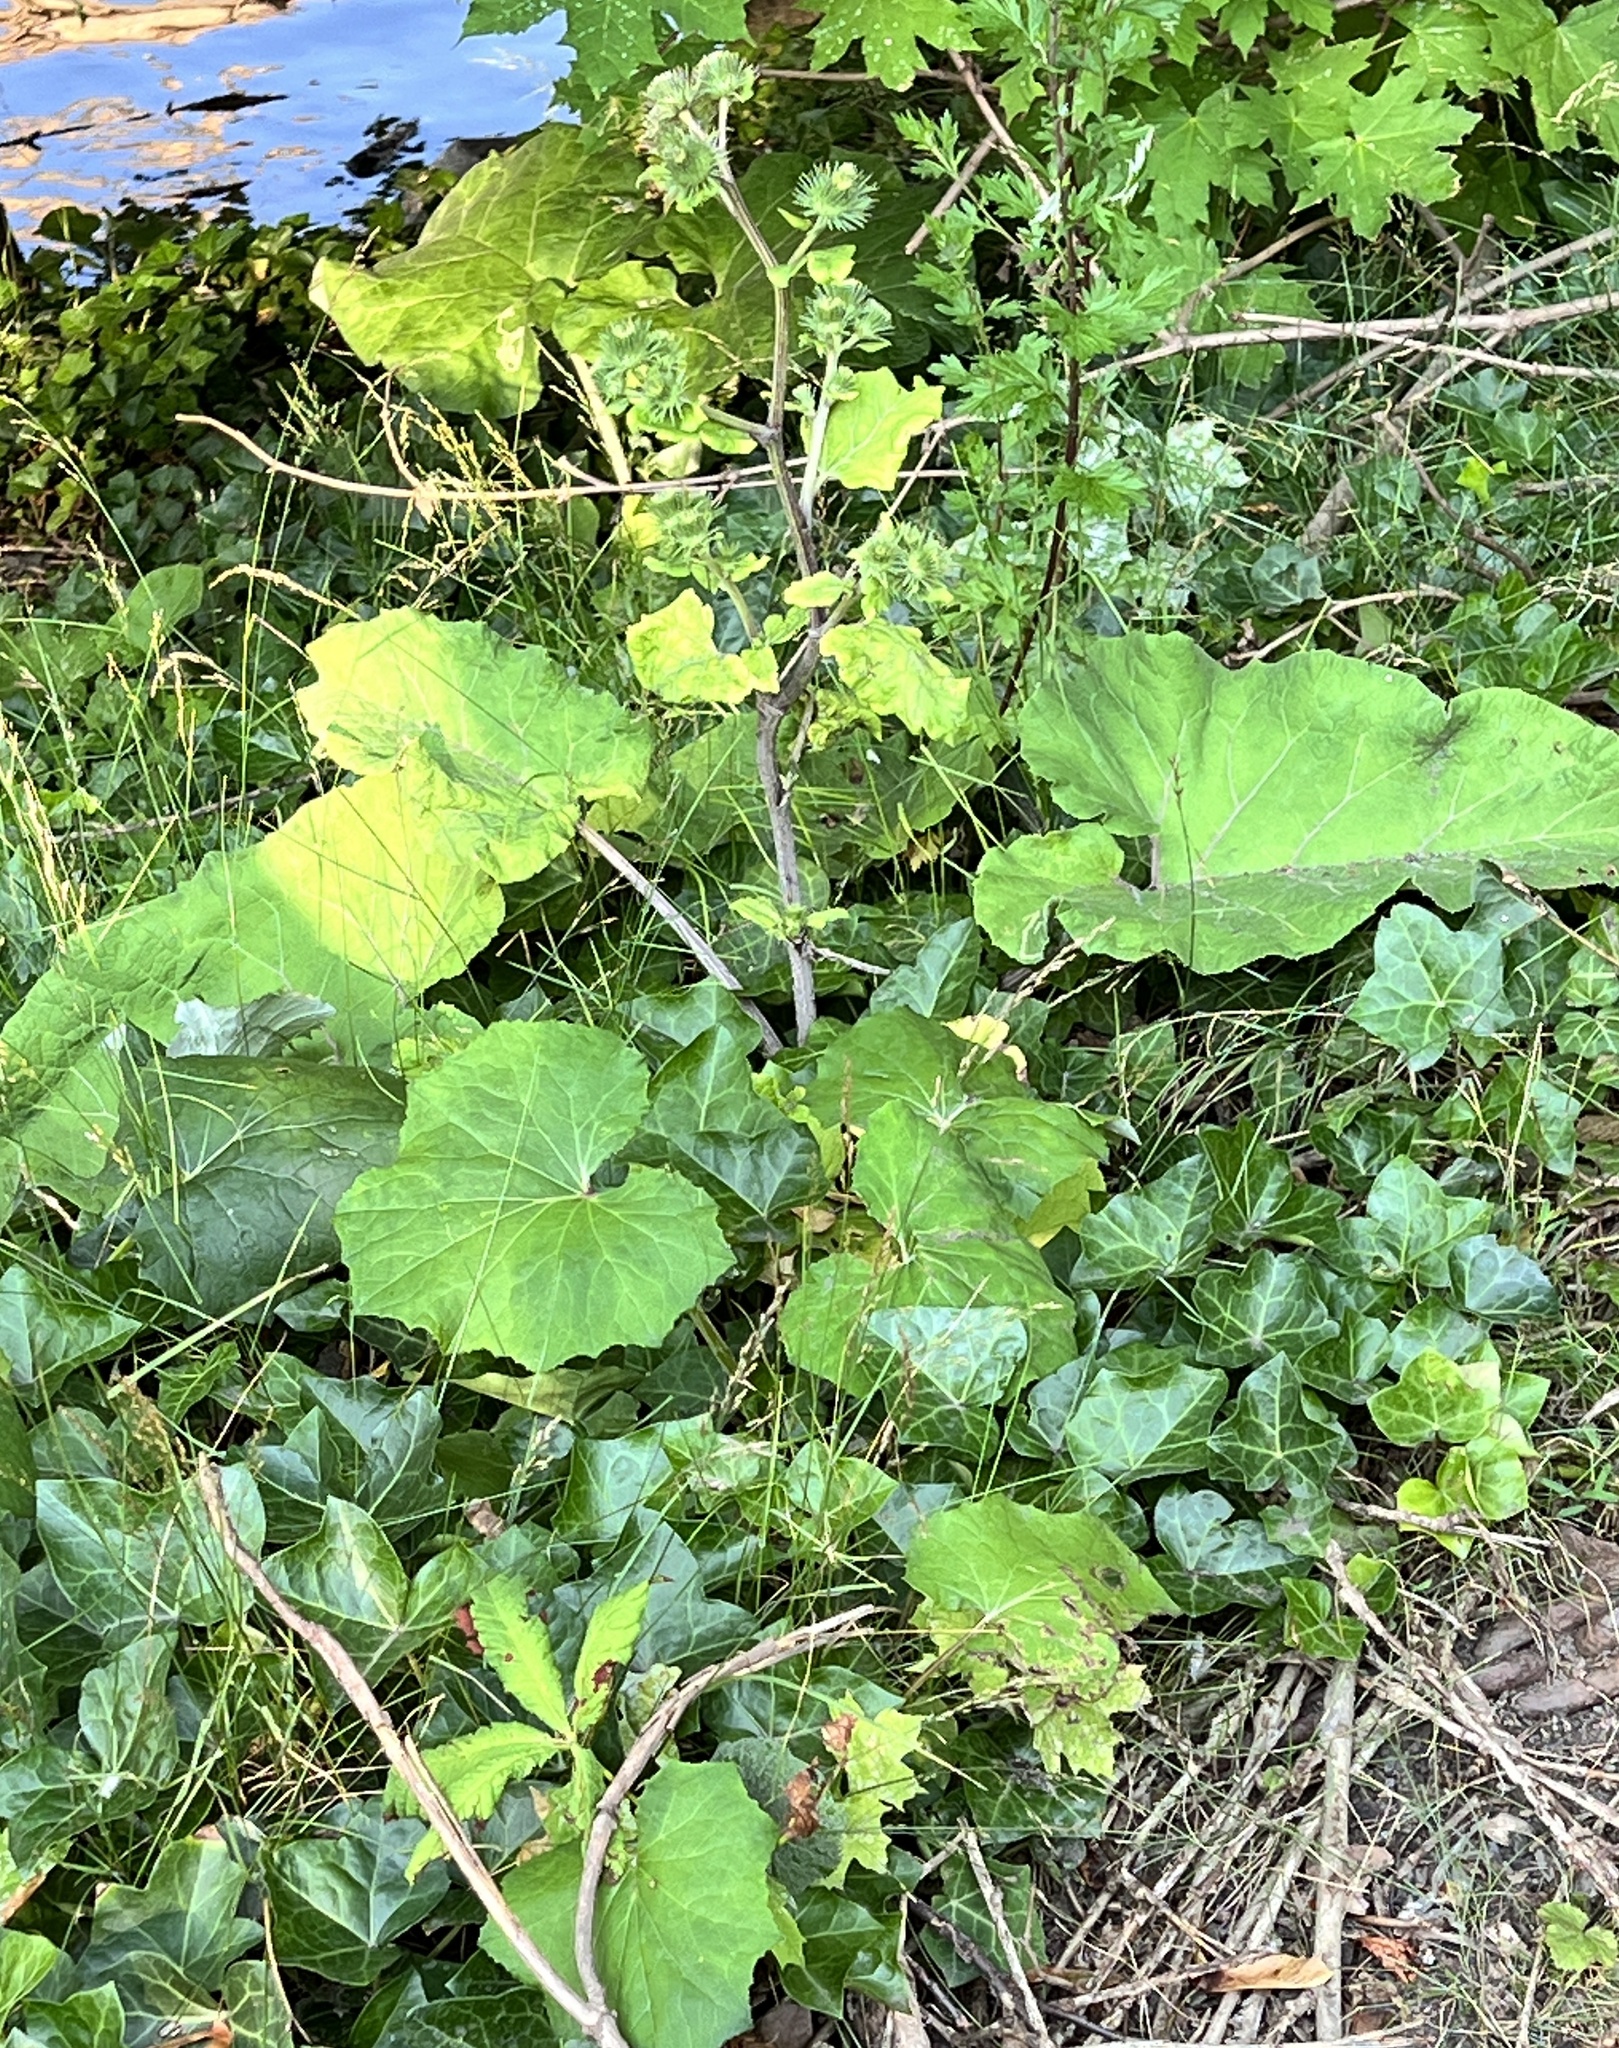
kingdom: Plantae
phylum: Tracheophyta
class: Magnoliopsida
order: Asterales
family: Asteraceae
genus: Arctium
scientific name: Arctium lappa
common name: Greater burdock
